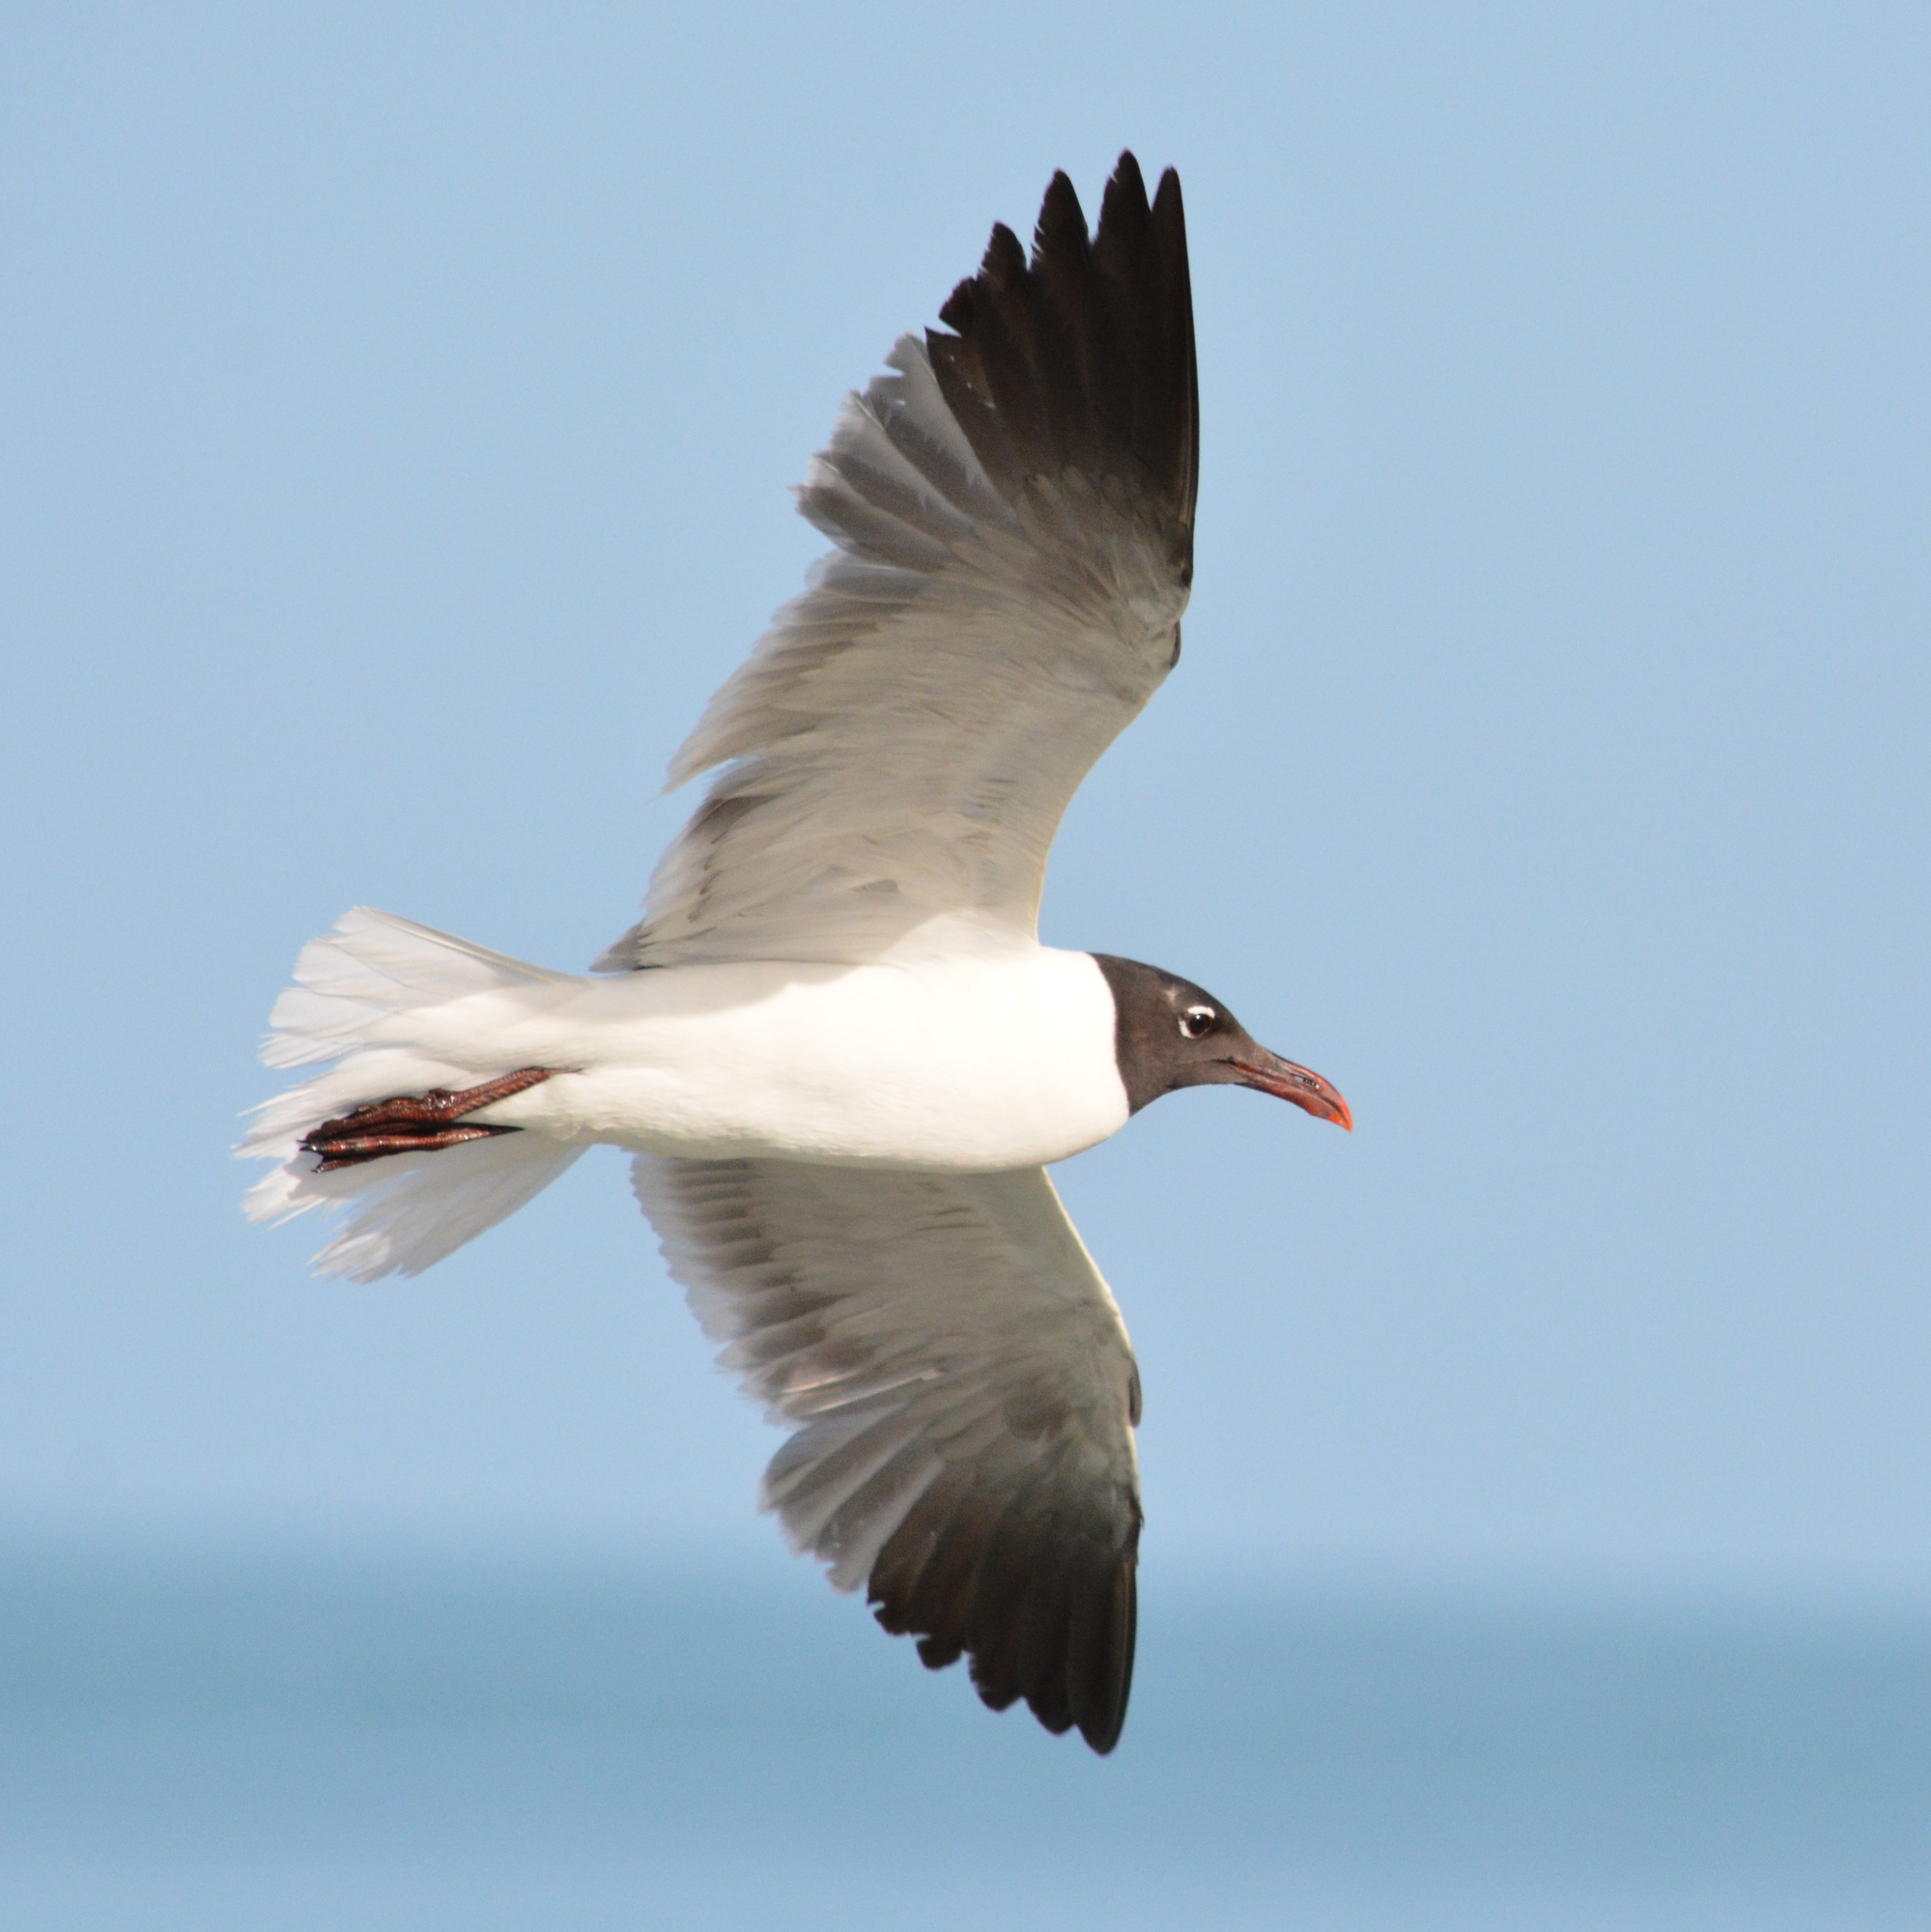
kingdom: Animalia
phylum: Chordata
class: Aves
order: Charadriiformes
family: Laridae
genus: Leucophaeus
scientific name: Leucophaeus atricilla
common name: Laughing gull
